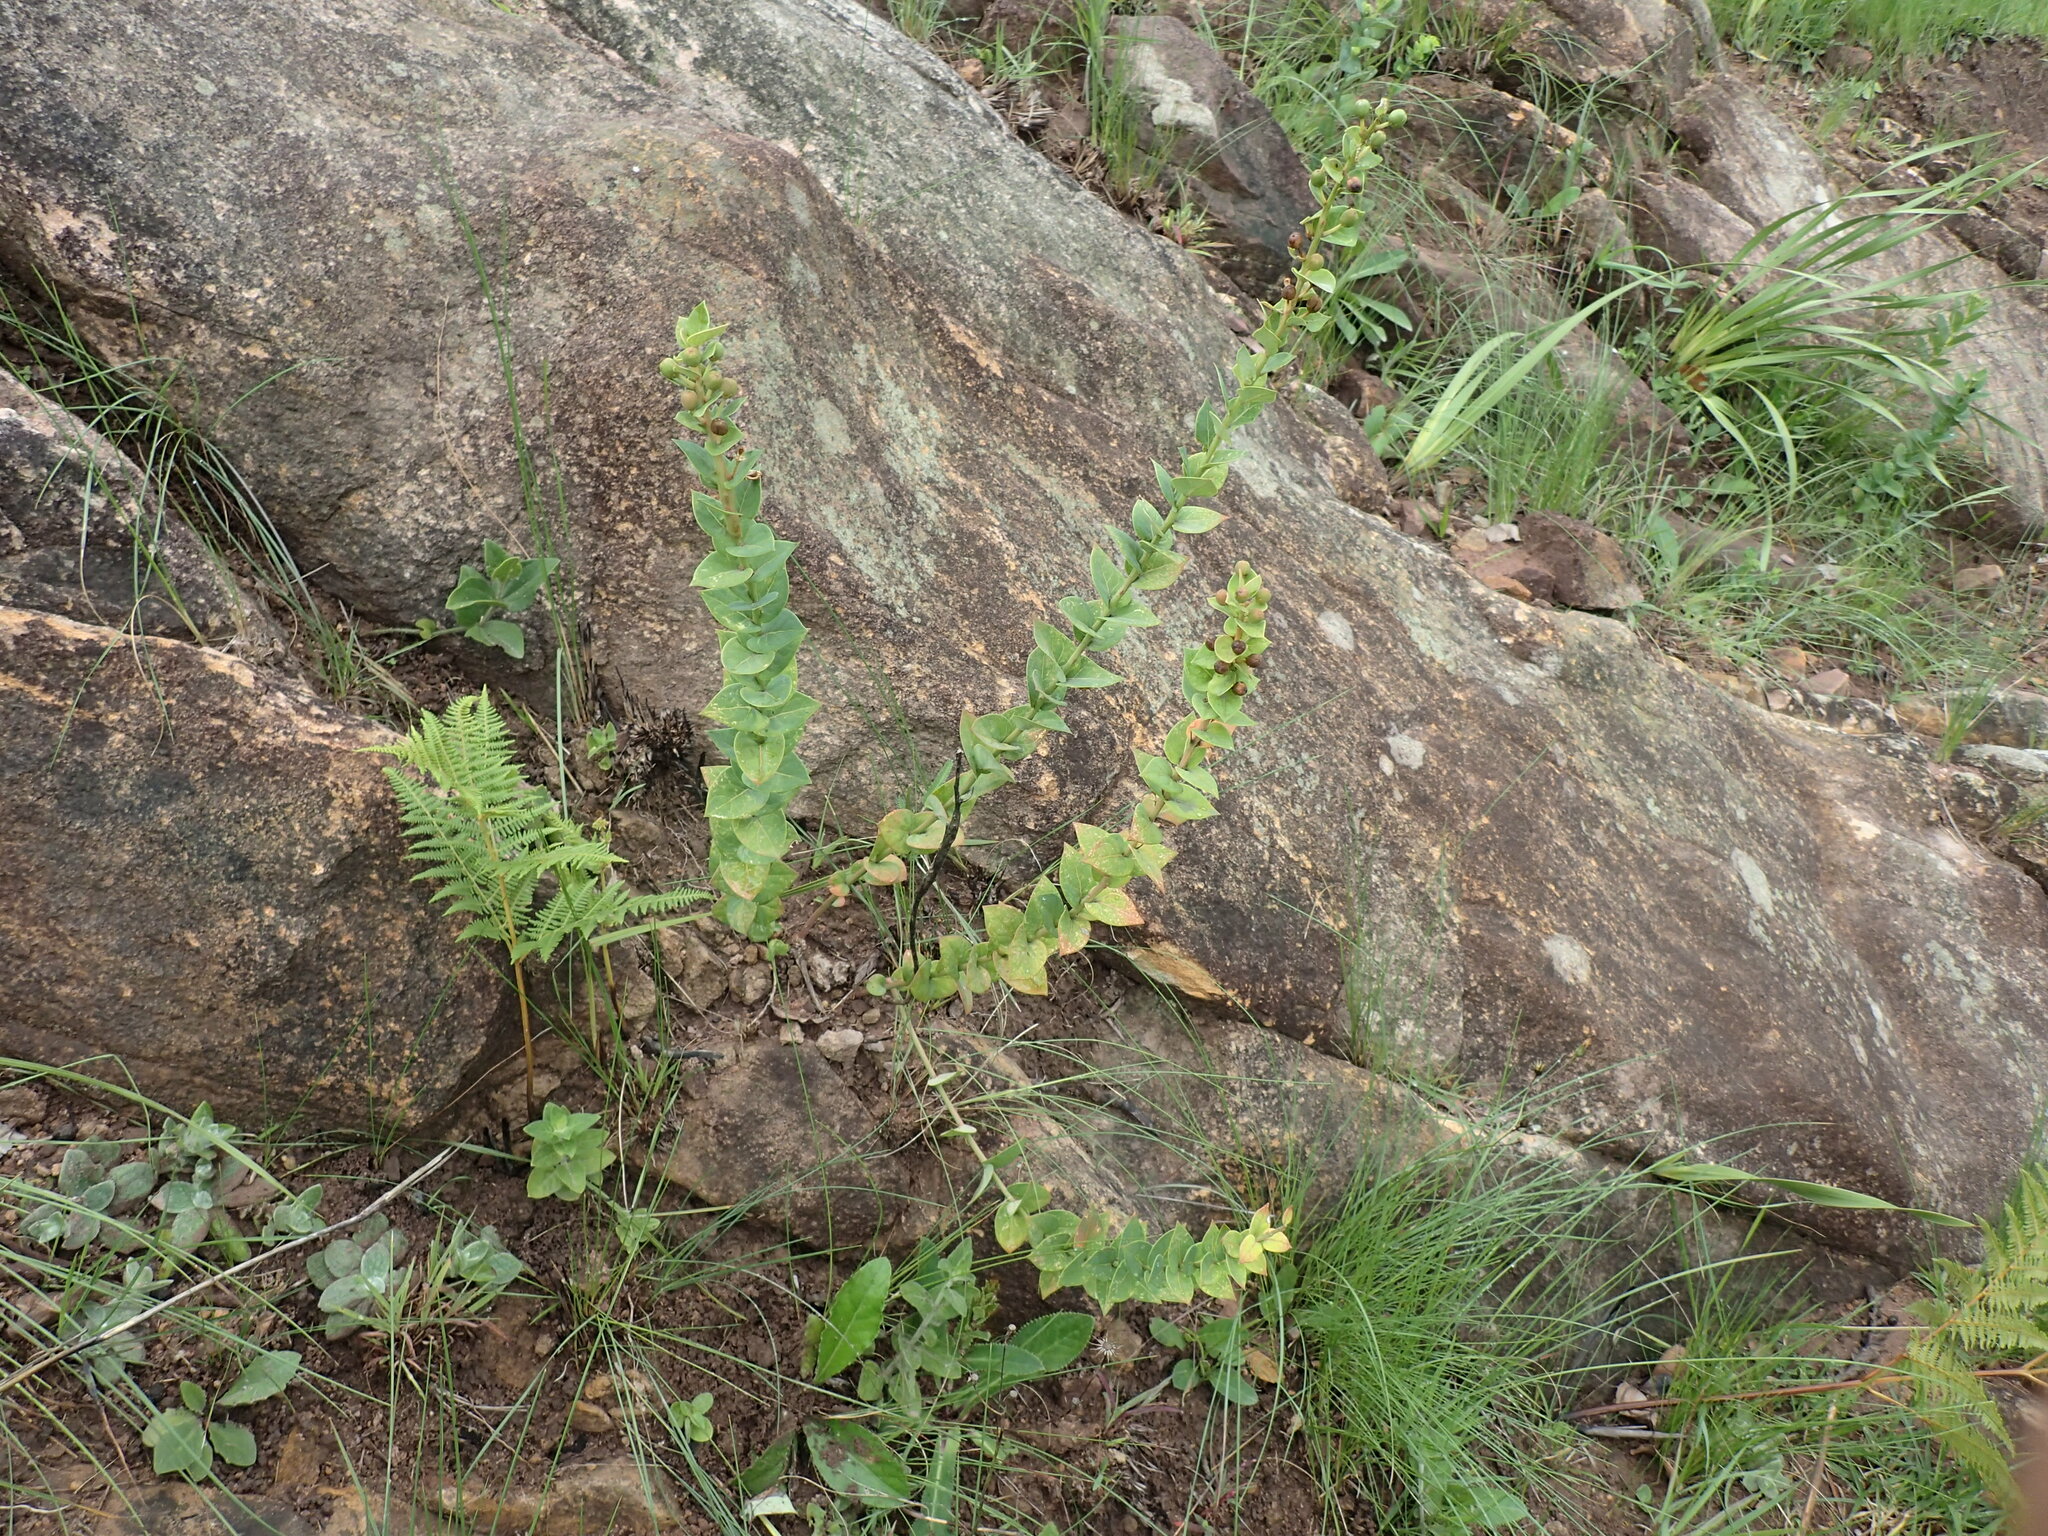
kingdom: Plantae
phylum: Tracheophyta
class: Magnoliopsida
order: Malpighiales
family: Peraceae
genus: Clutia
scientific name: Clutia cordata
